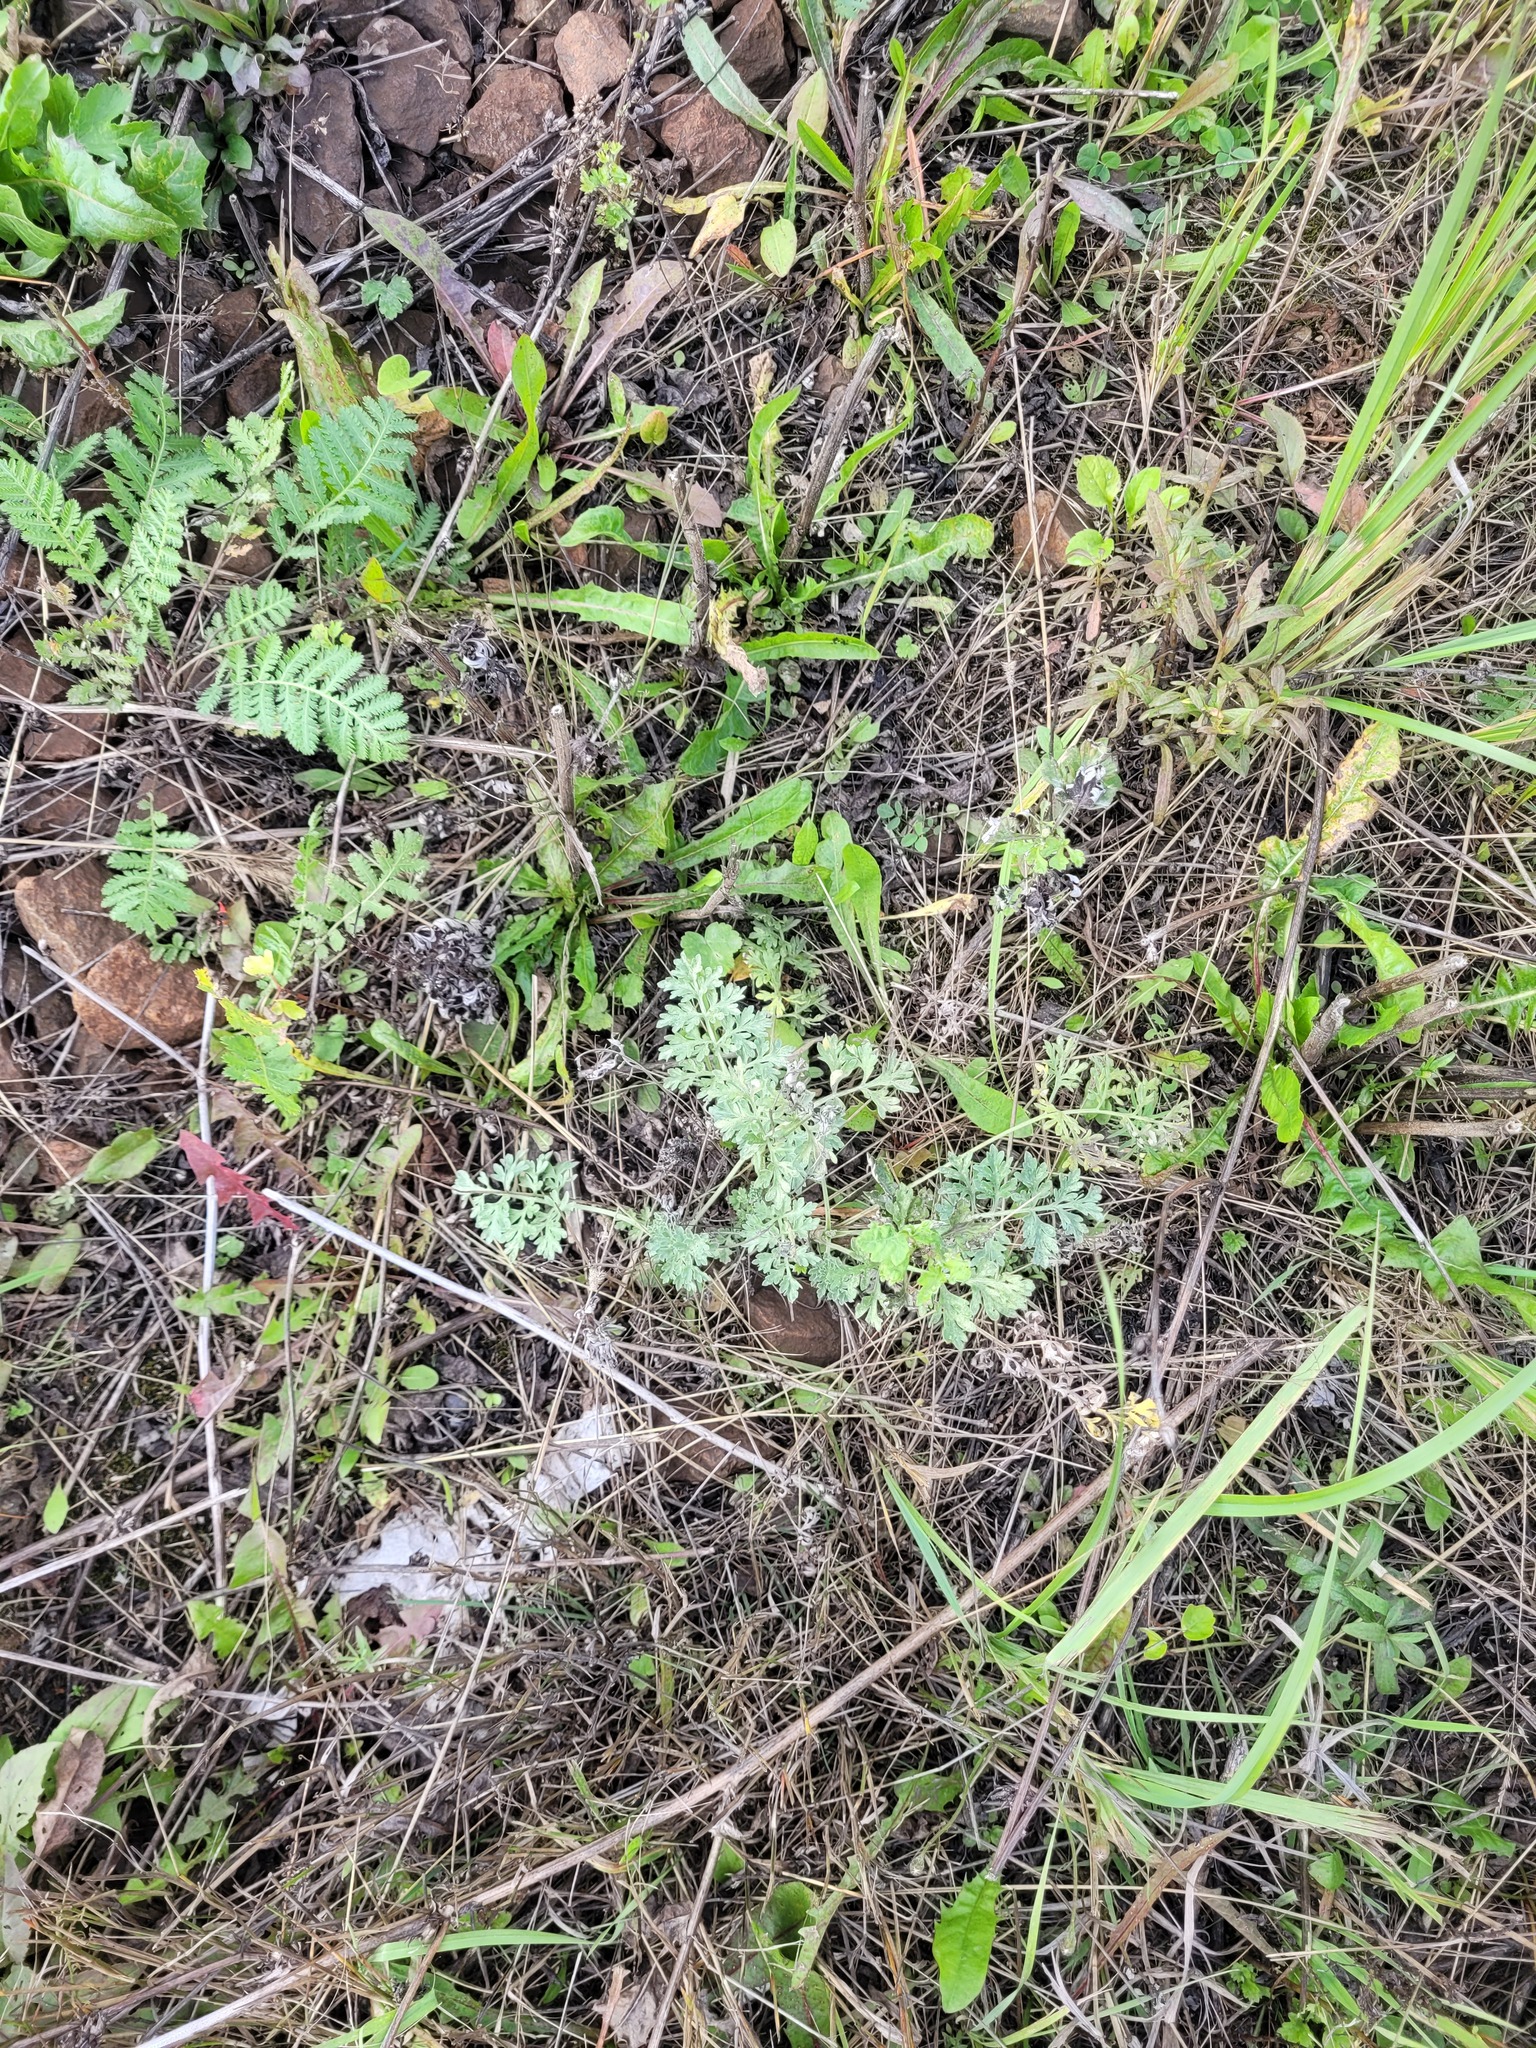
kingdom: Plantae
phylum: Tracheophyta
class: Magnoliopsida
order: Asterales
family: Asteraceae
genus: Artemisia
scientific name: Artemisia absinthium
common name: Wormwood
